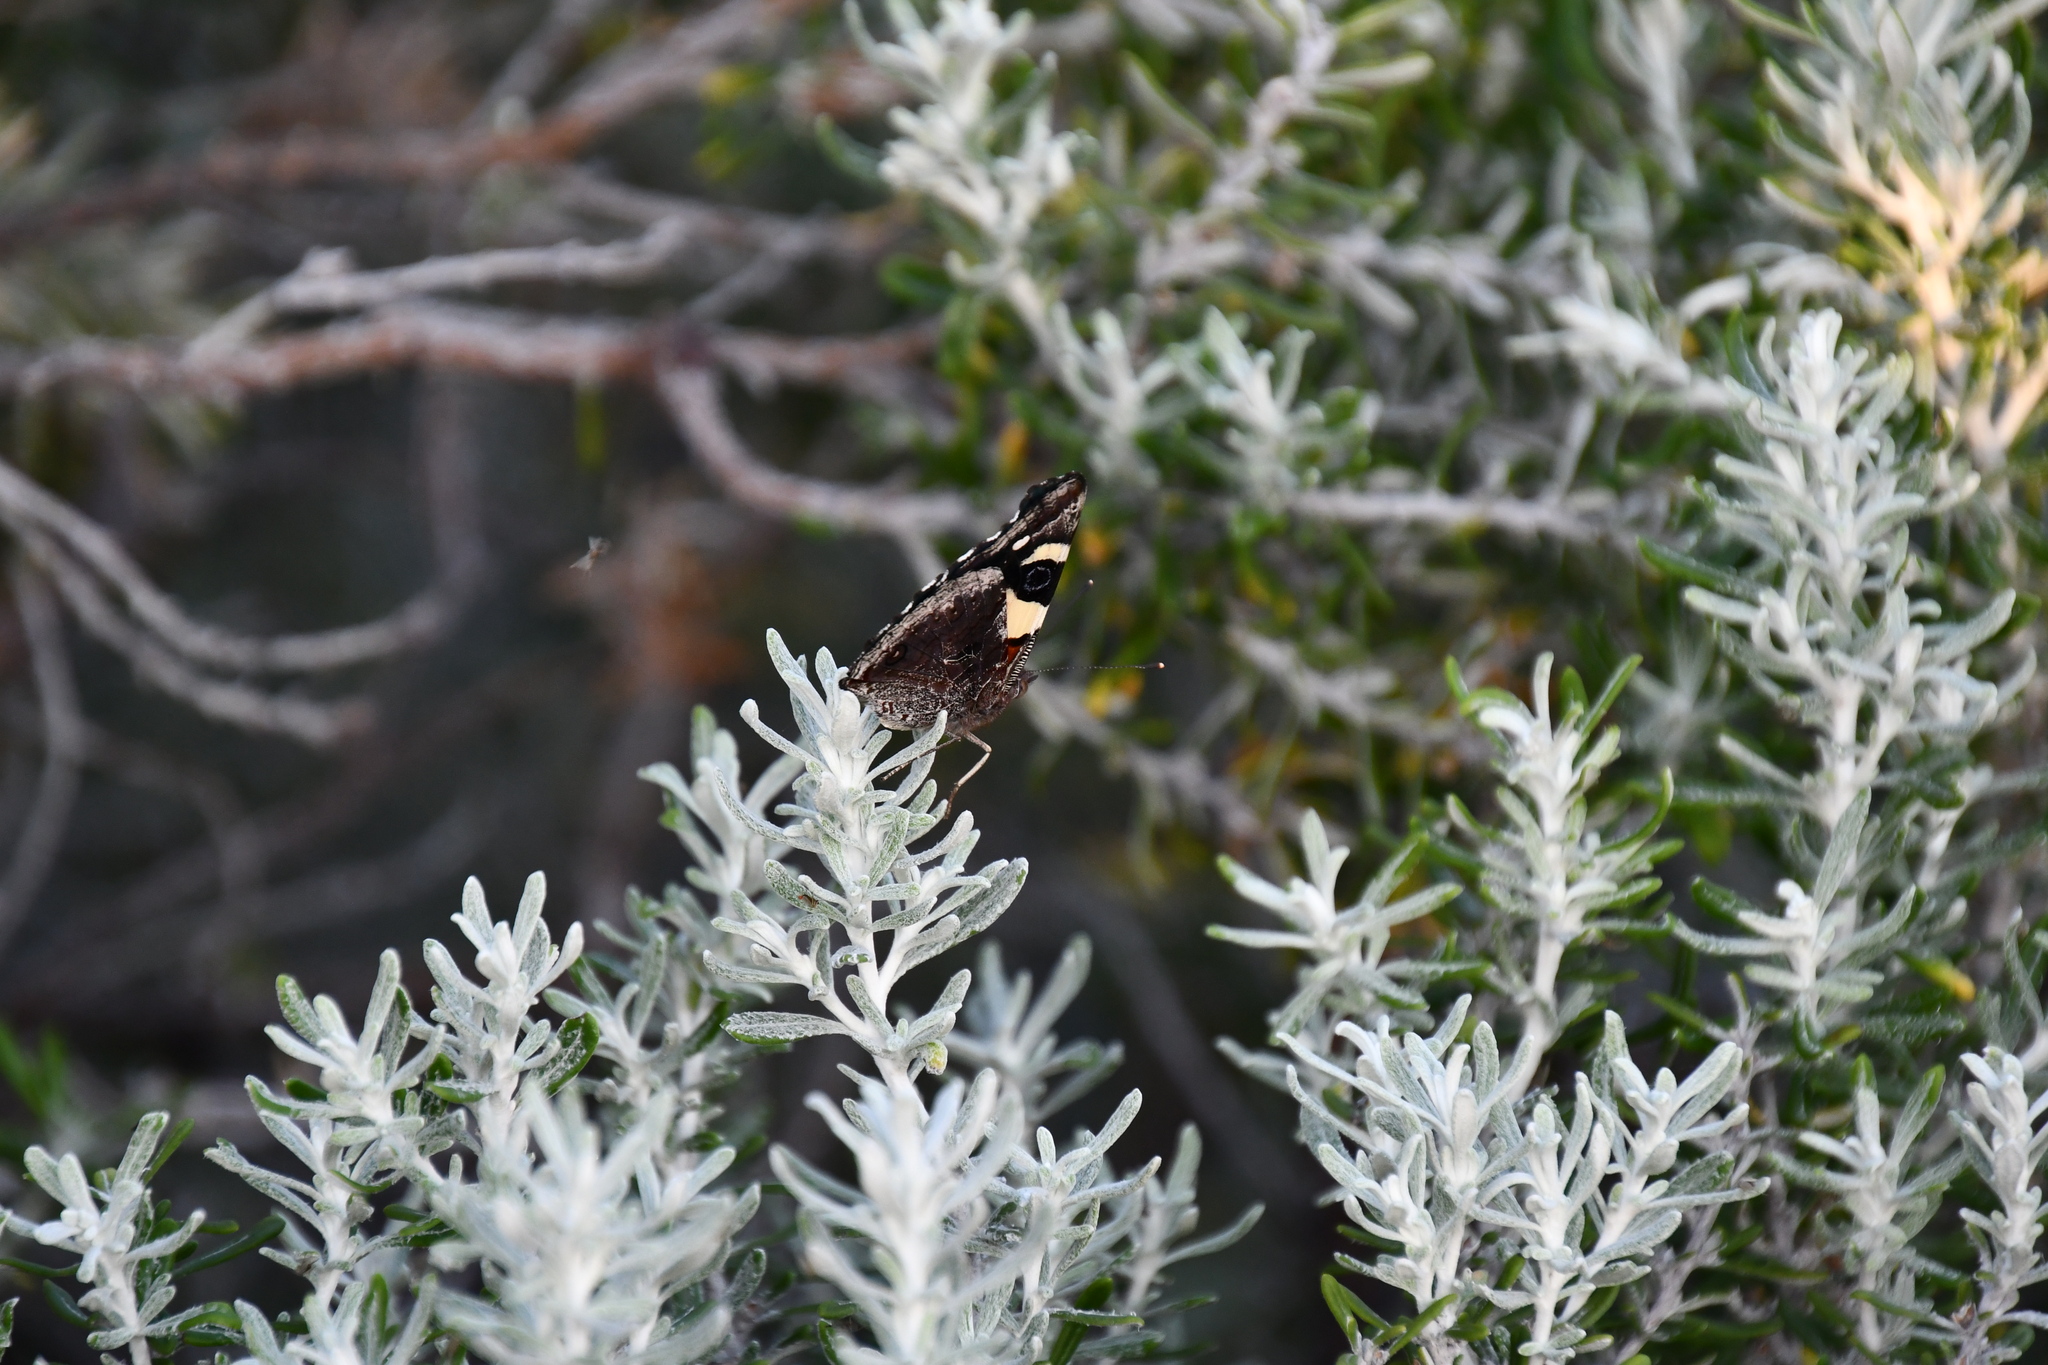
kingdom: Animalia
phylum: Arthropoda
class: Insecta
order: Lepidoptera
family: Nymphalidae
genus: Vanessa
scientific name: Vanessa itea
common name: Yellow admiral
